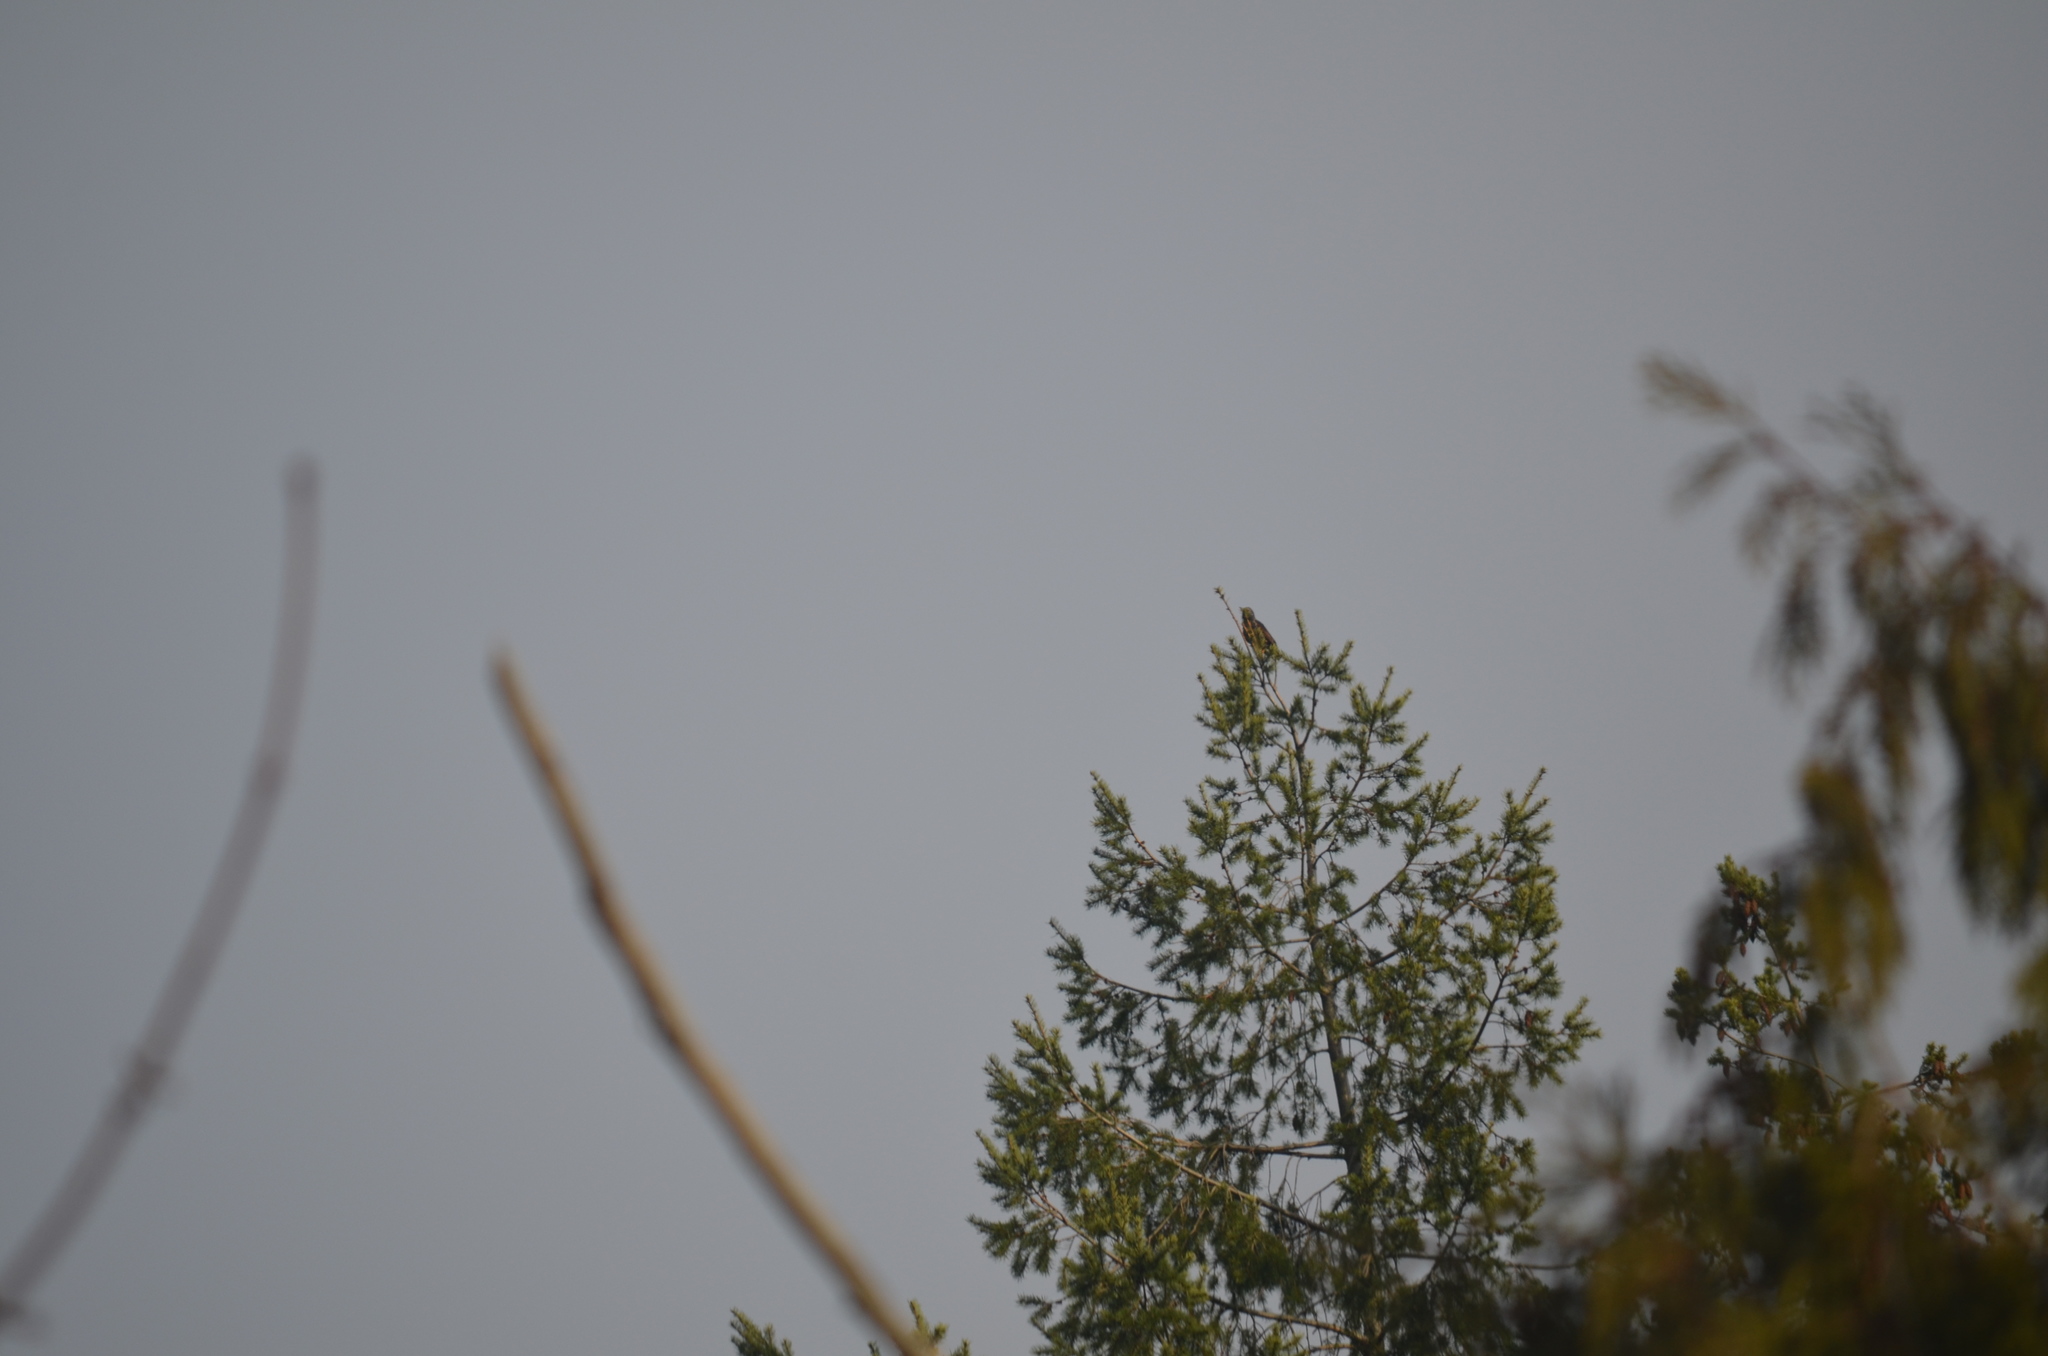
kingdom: Animalia
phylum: Chordata
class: Aves
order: Passeriformes
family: Sturnidae
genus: Sturnus
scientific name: Sturnus vulgaris
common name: Common starling
